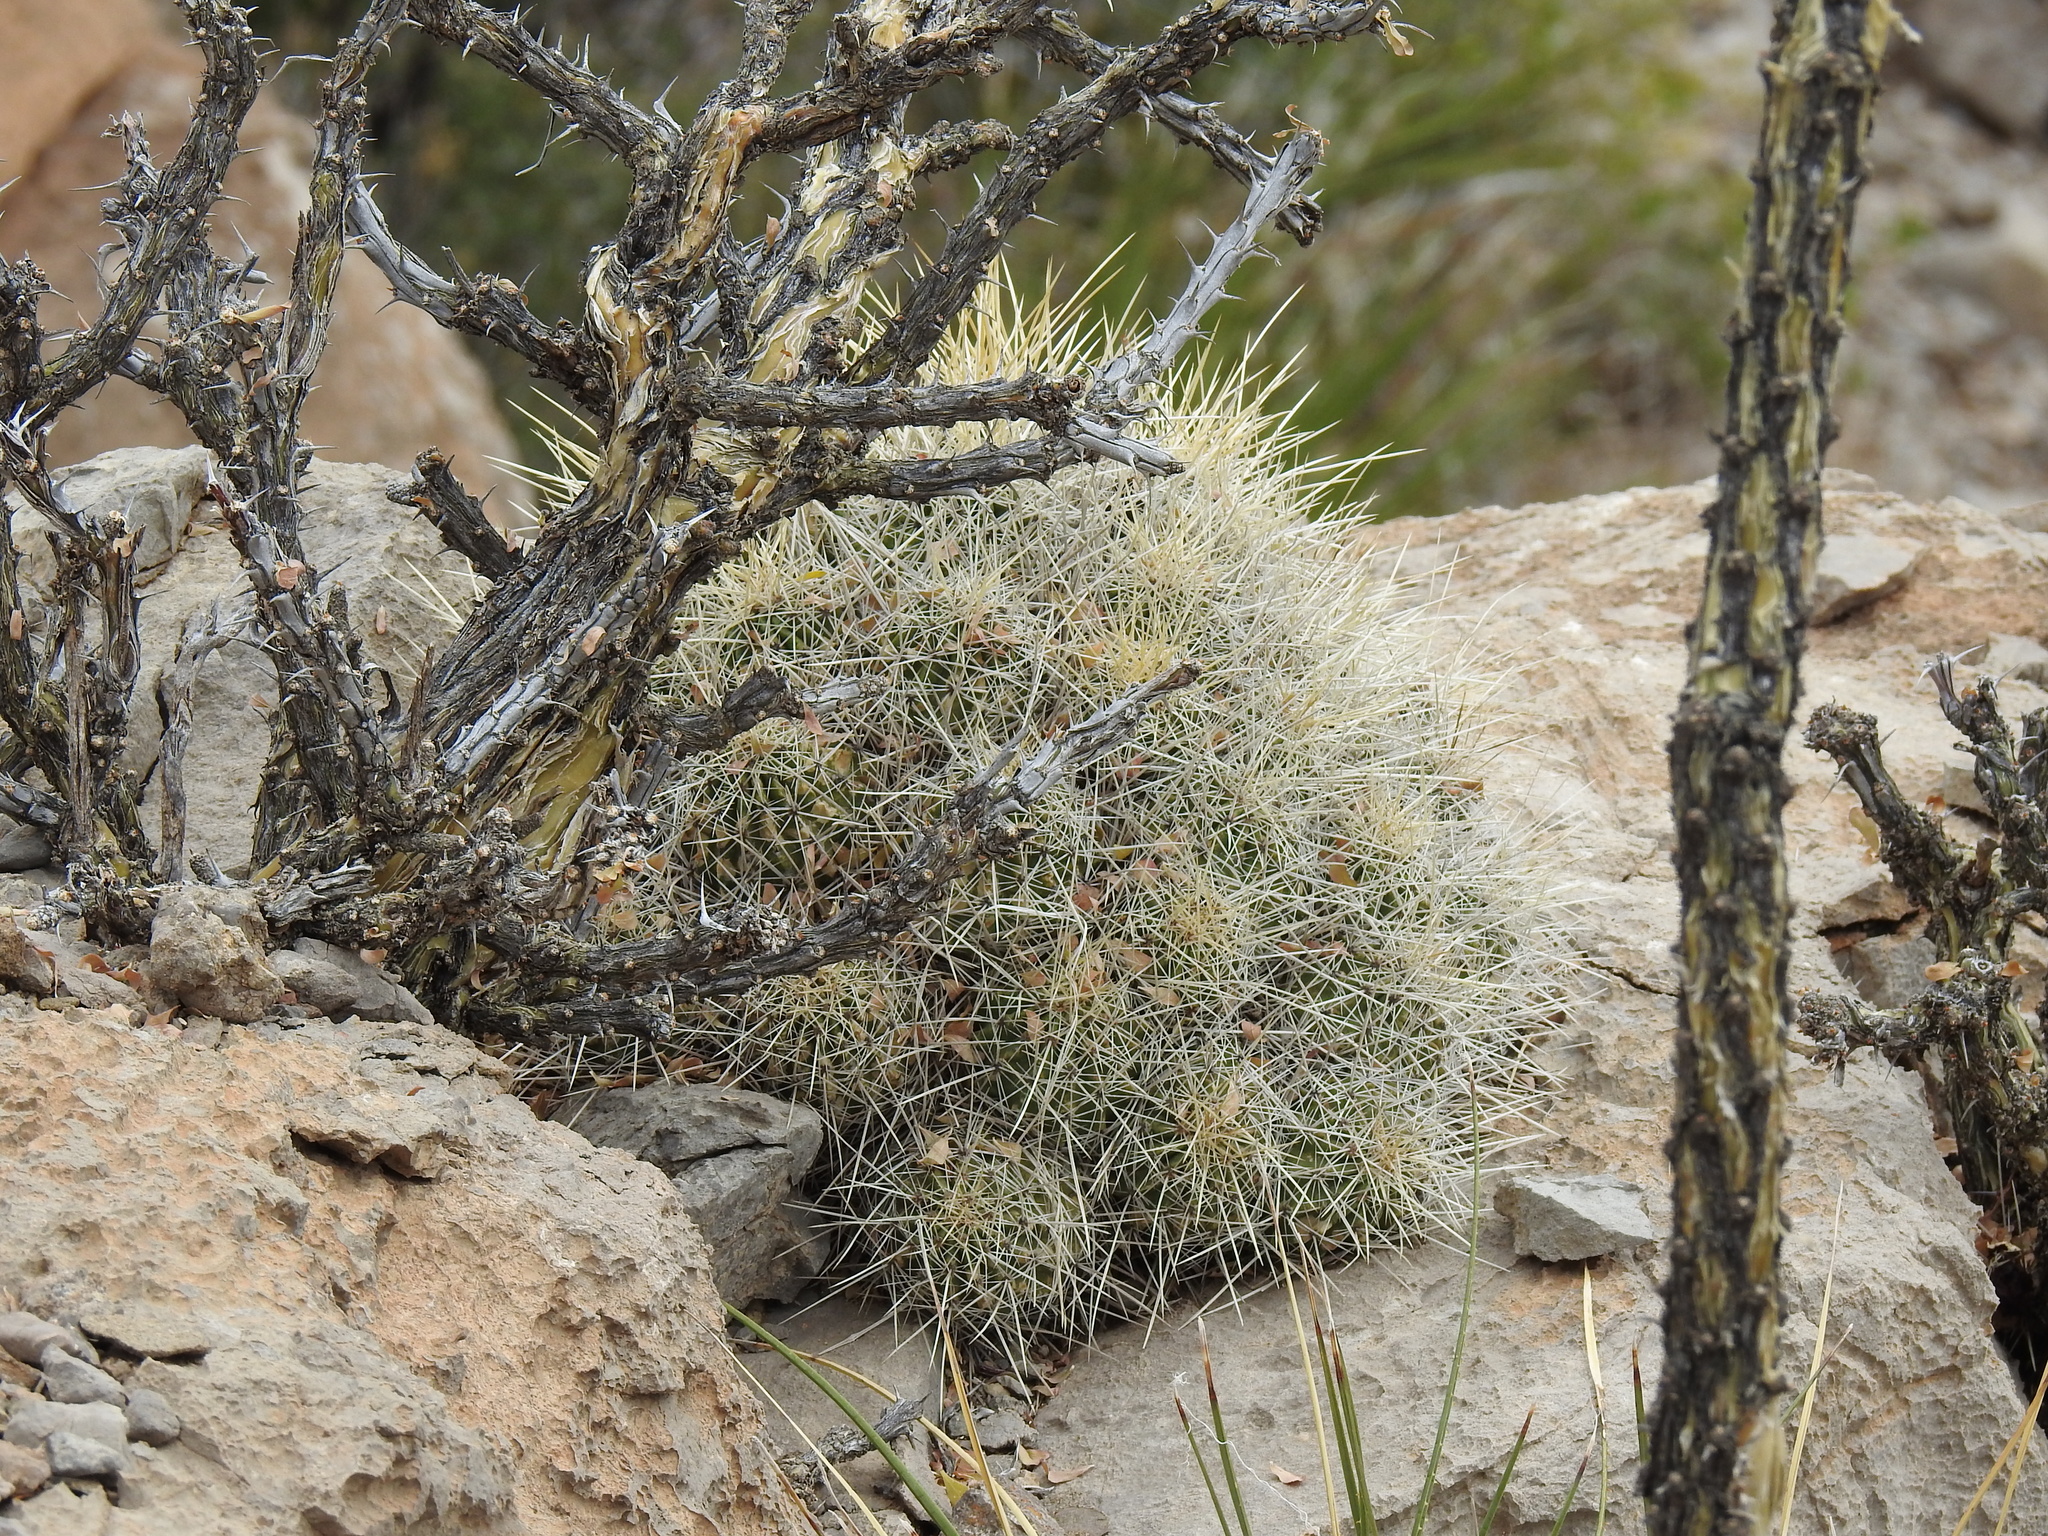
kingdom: Plantae
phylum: Tracheophyta
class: Magnoliopsida
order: Caryophyllales
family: Cactaceae
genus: Echinocereus
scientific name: Echinocereus stramineus
